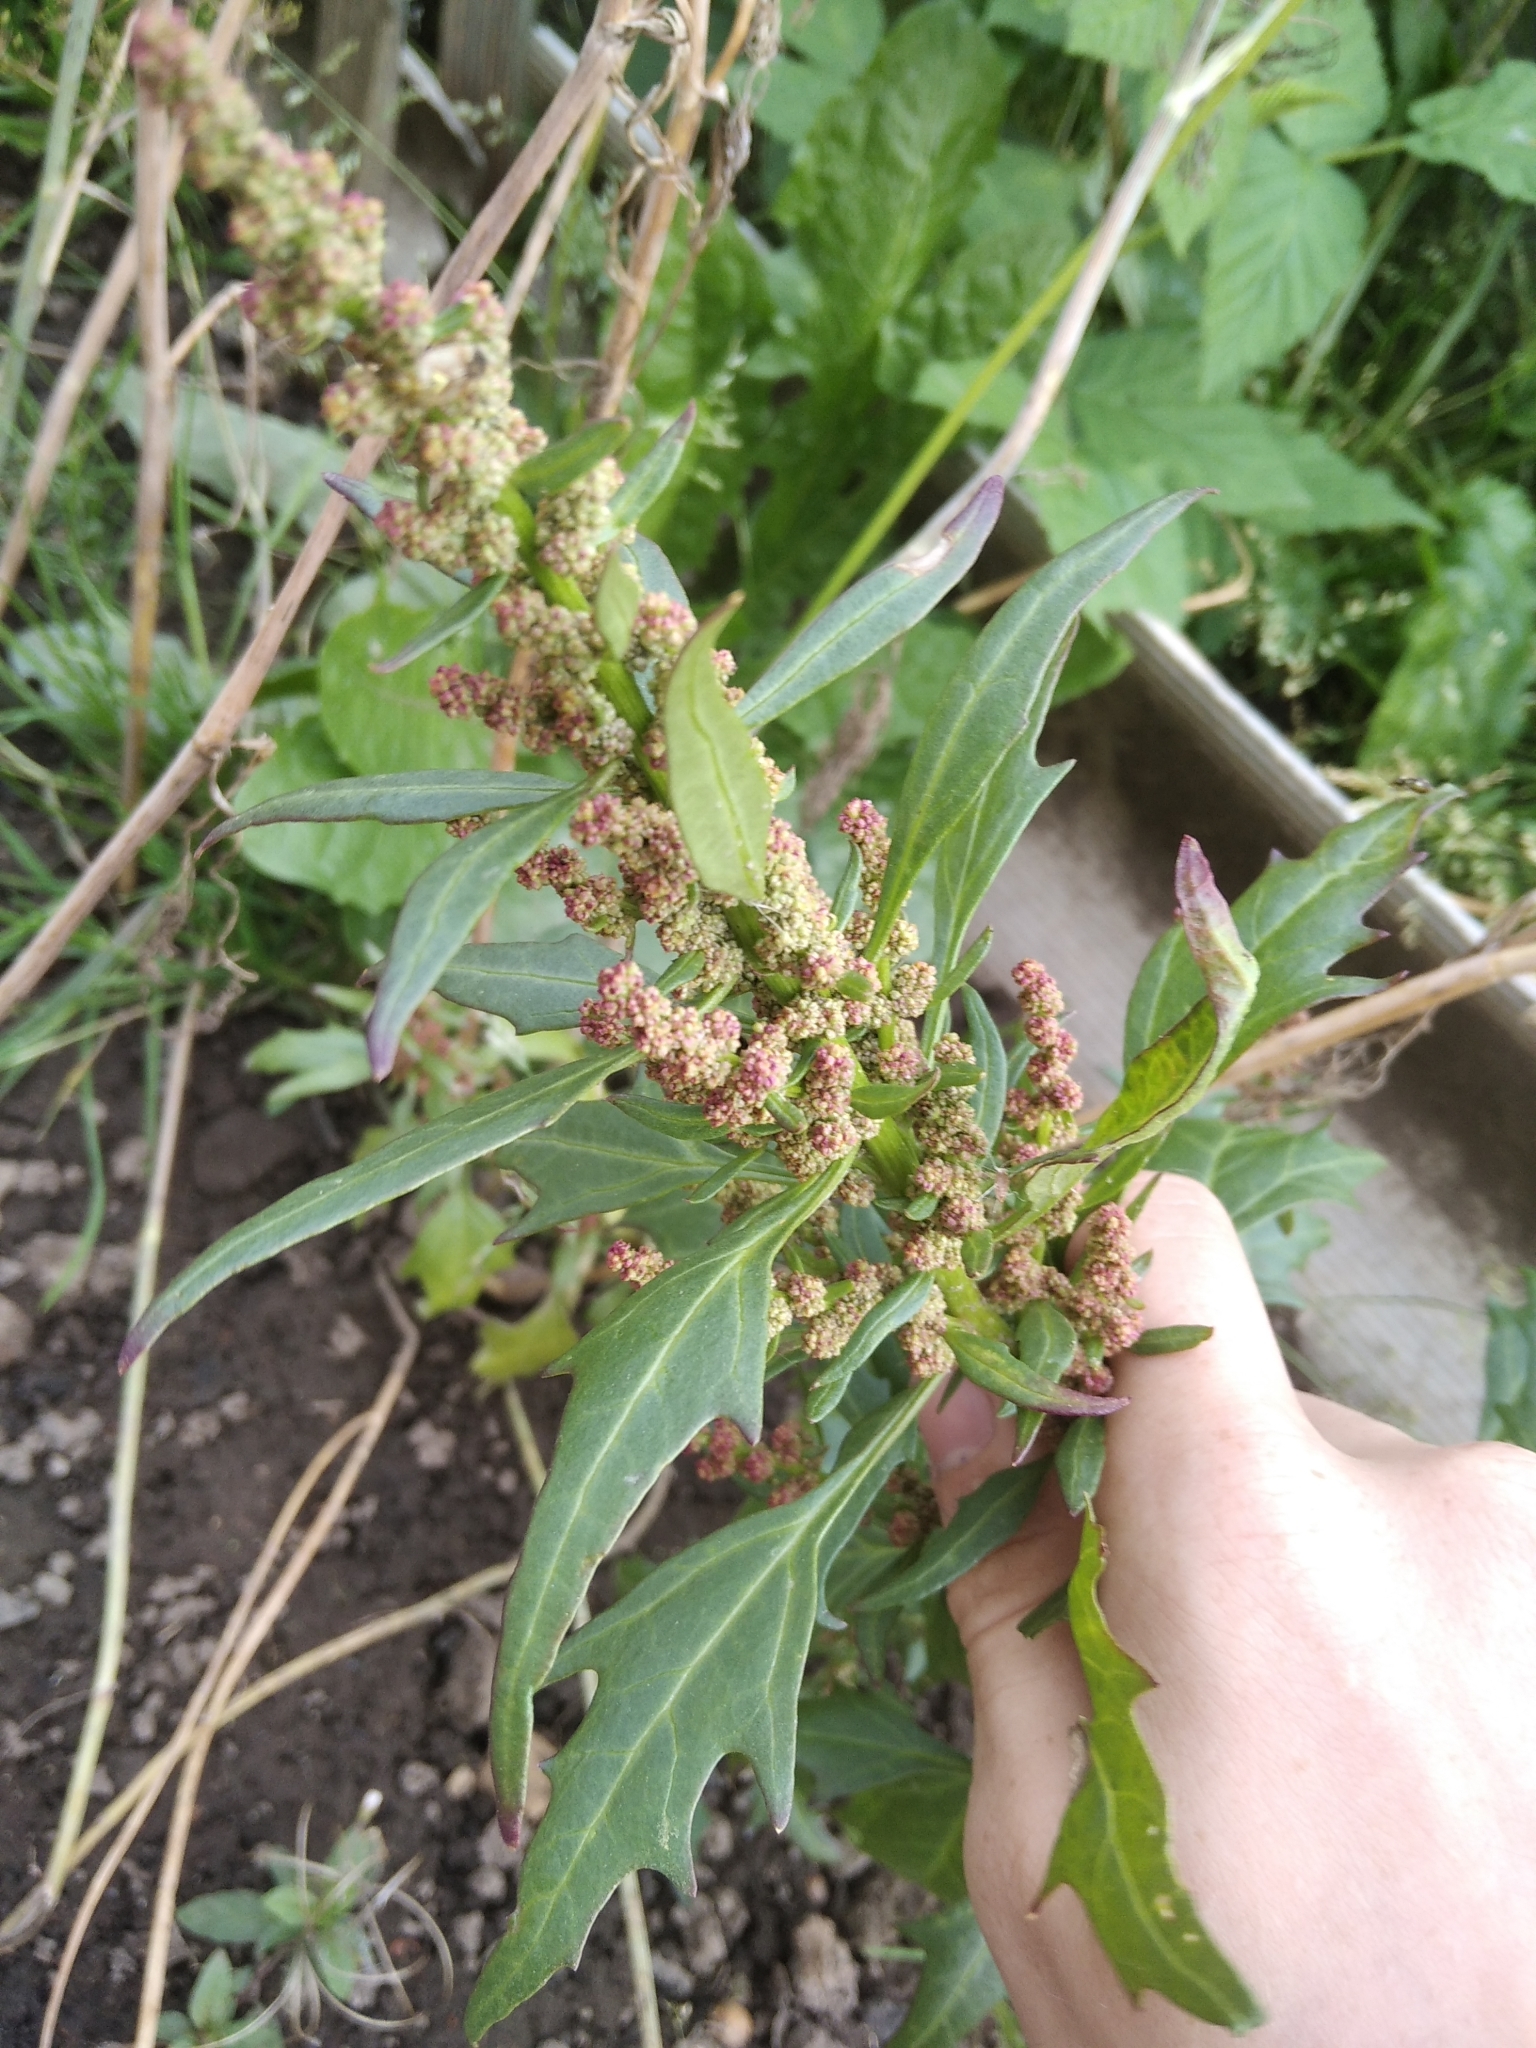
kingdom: Plantae
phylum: Tracheophyta
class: Magnoliopsida
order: Caryophyllales
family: Amaranthaceae
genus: Oxybasis
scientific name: Oxybasis rubra
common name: Red goosefoot
